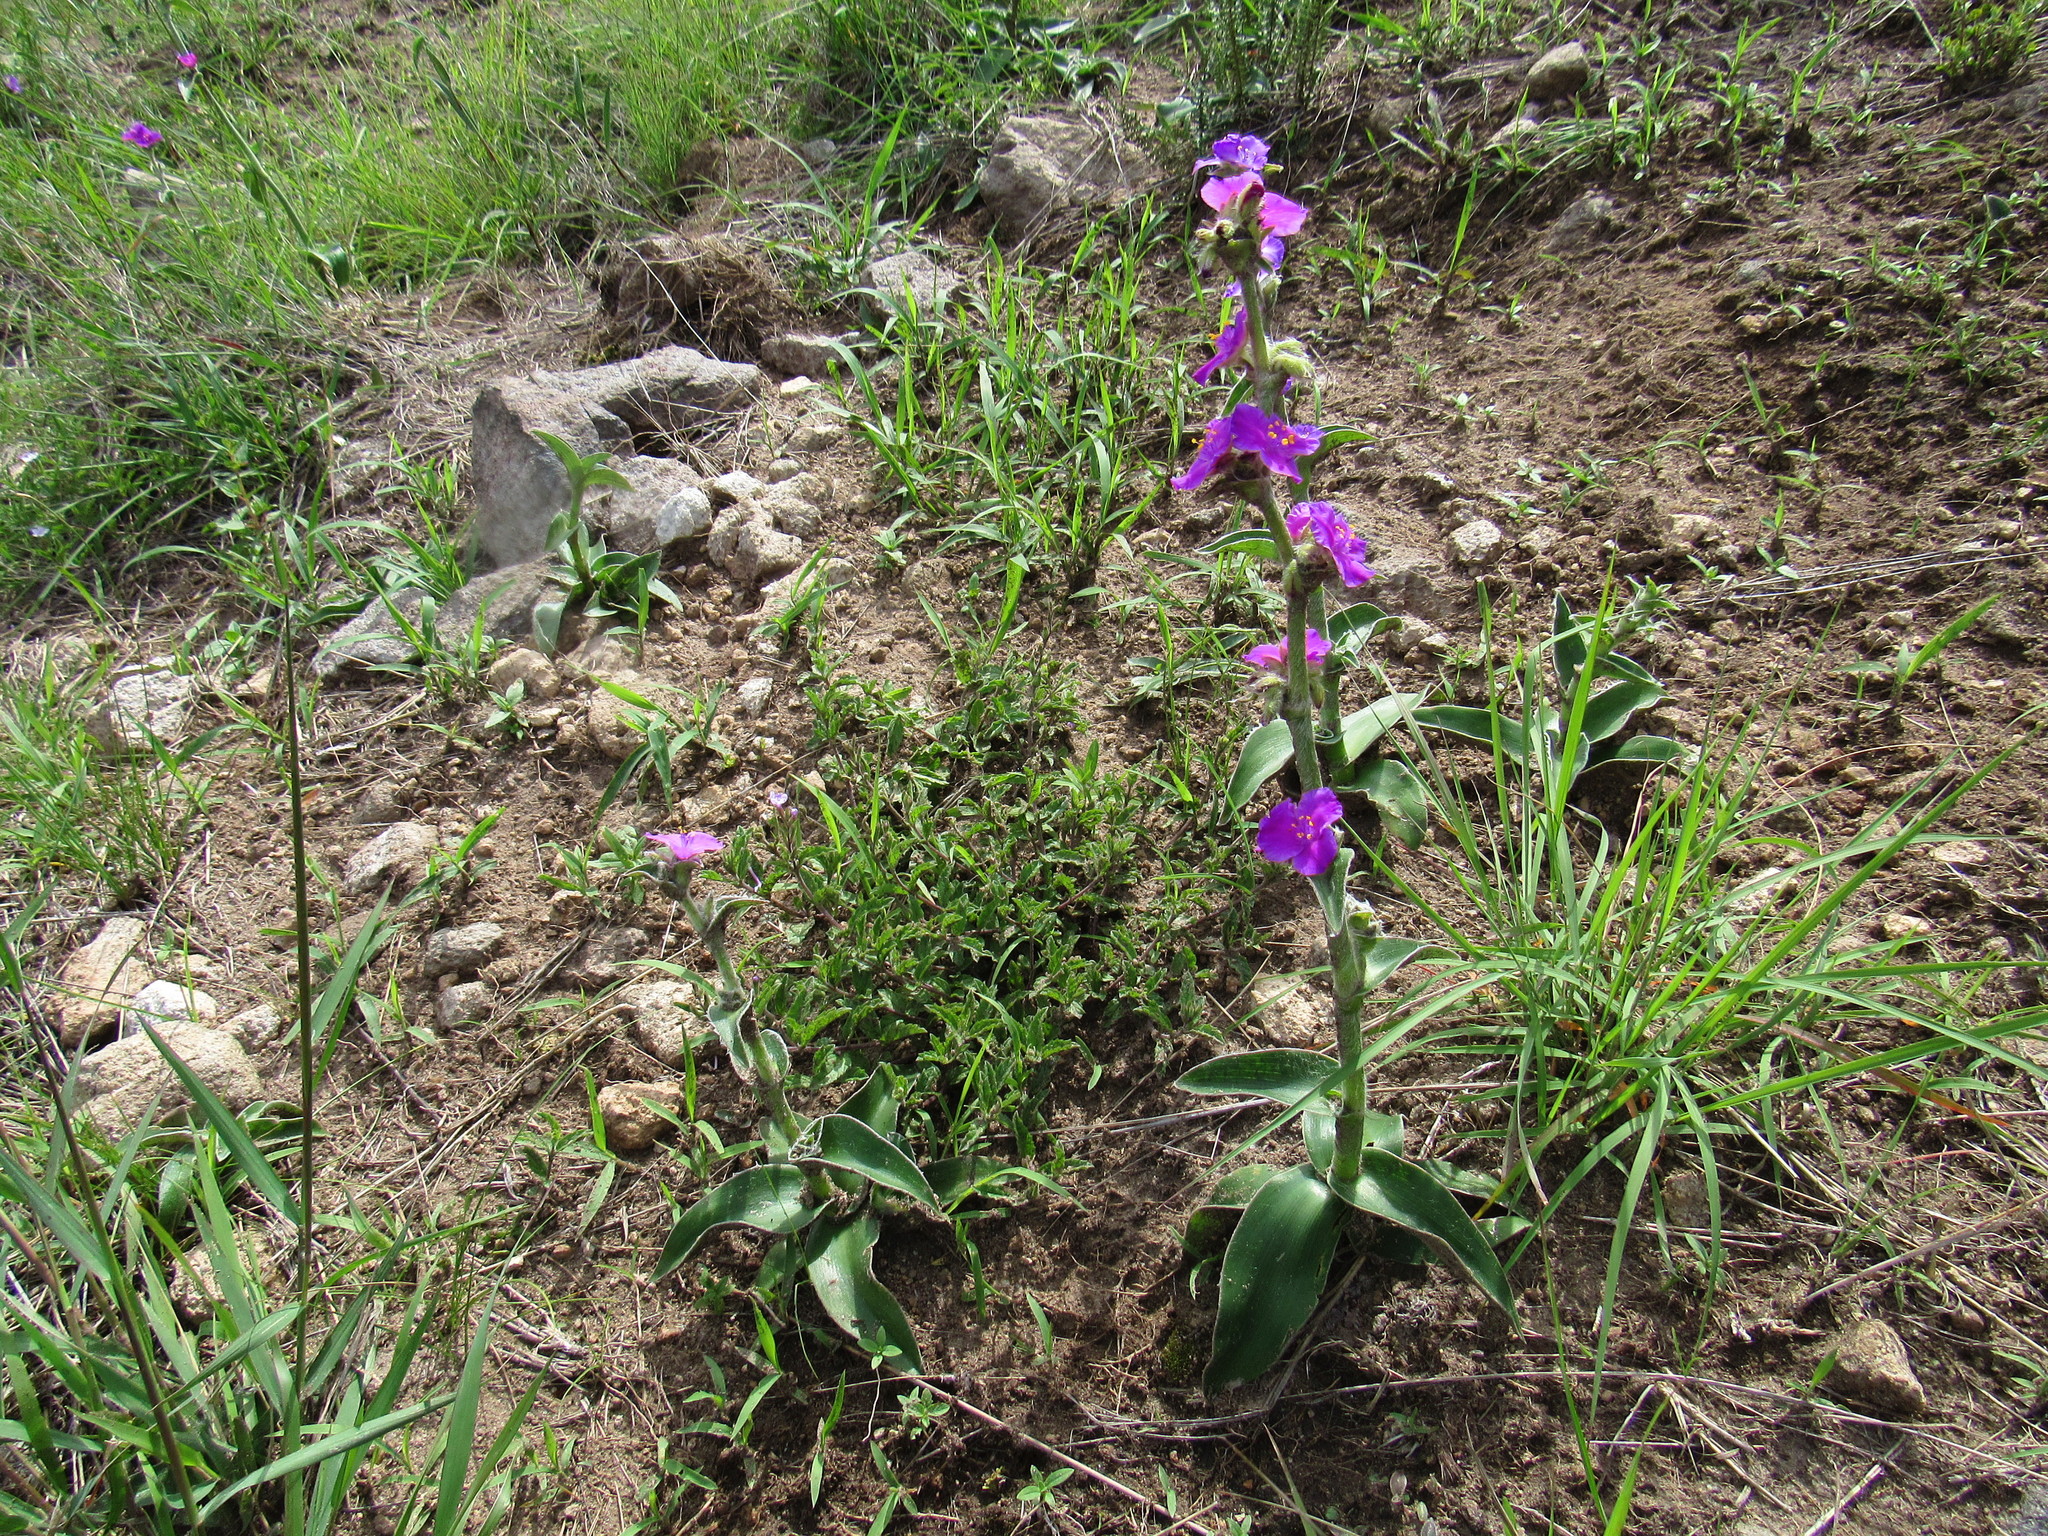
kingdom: Plantae
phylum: Tracheophyta
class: Liliopsida
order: Commelinales
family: Commelinaceae
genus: Tradescantia
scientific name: Tradescantia crassifolia
